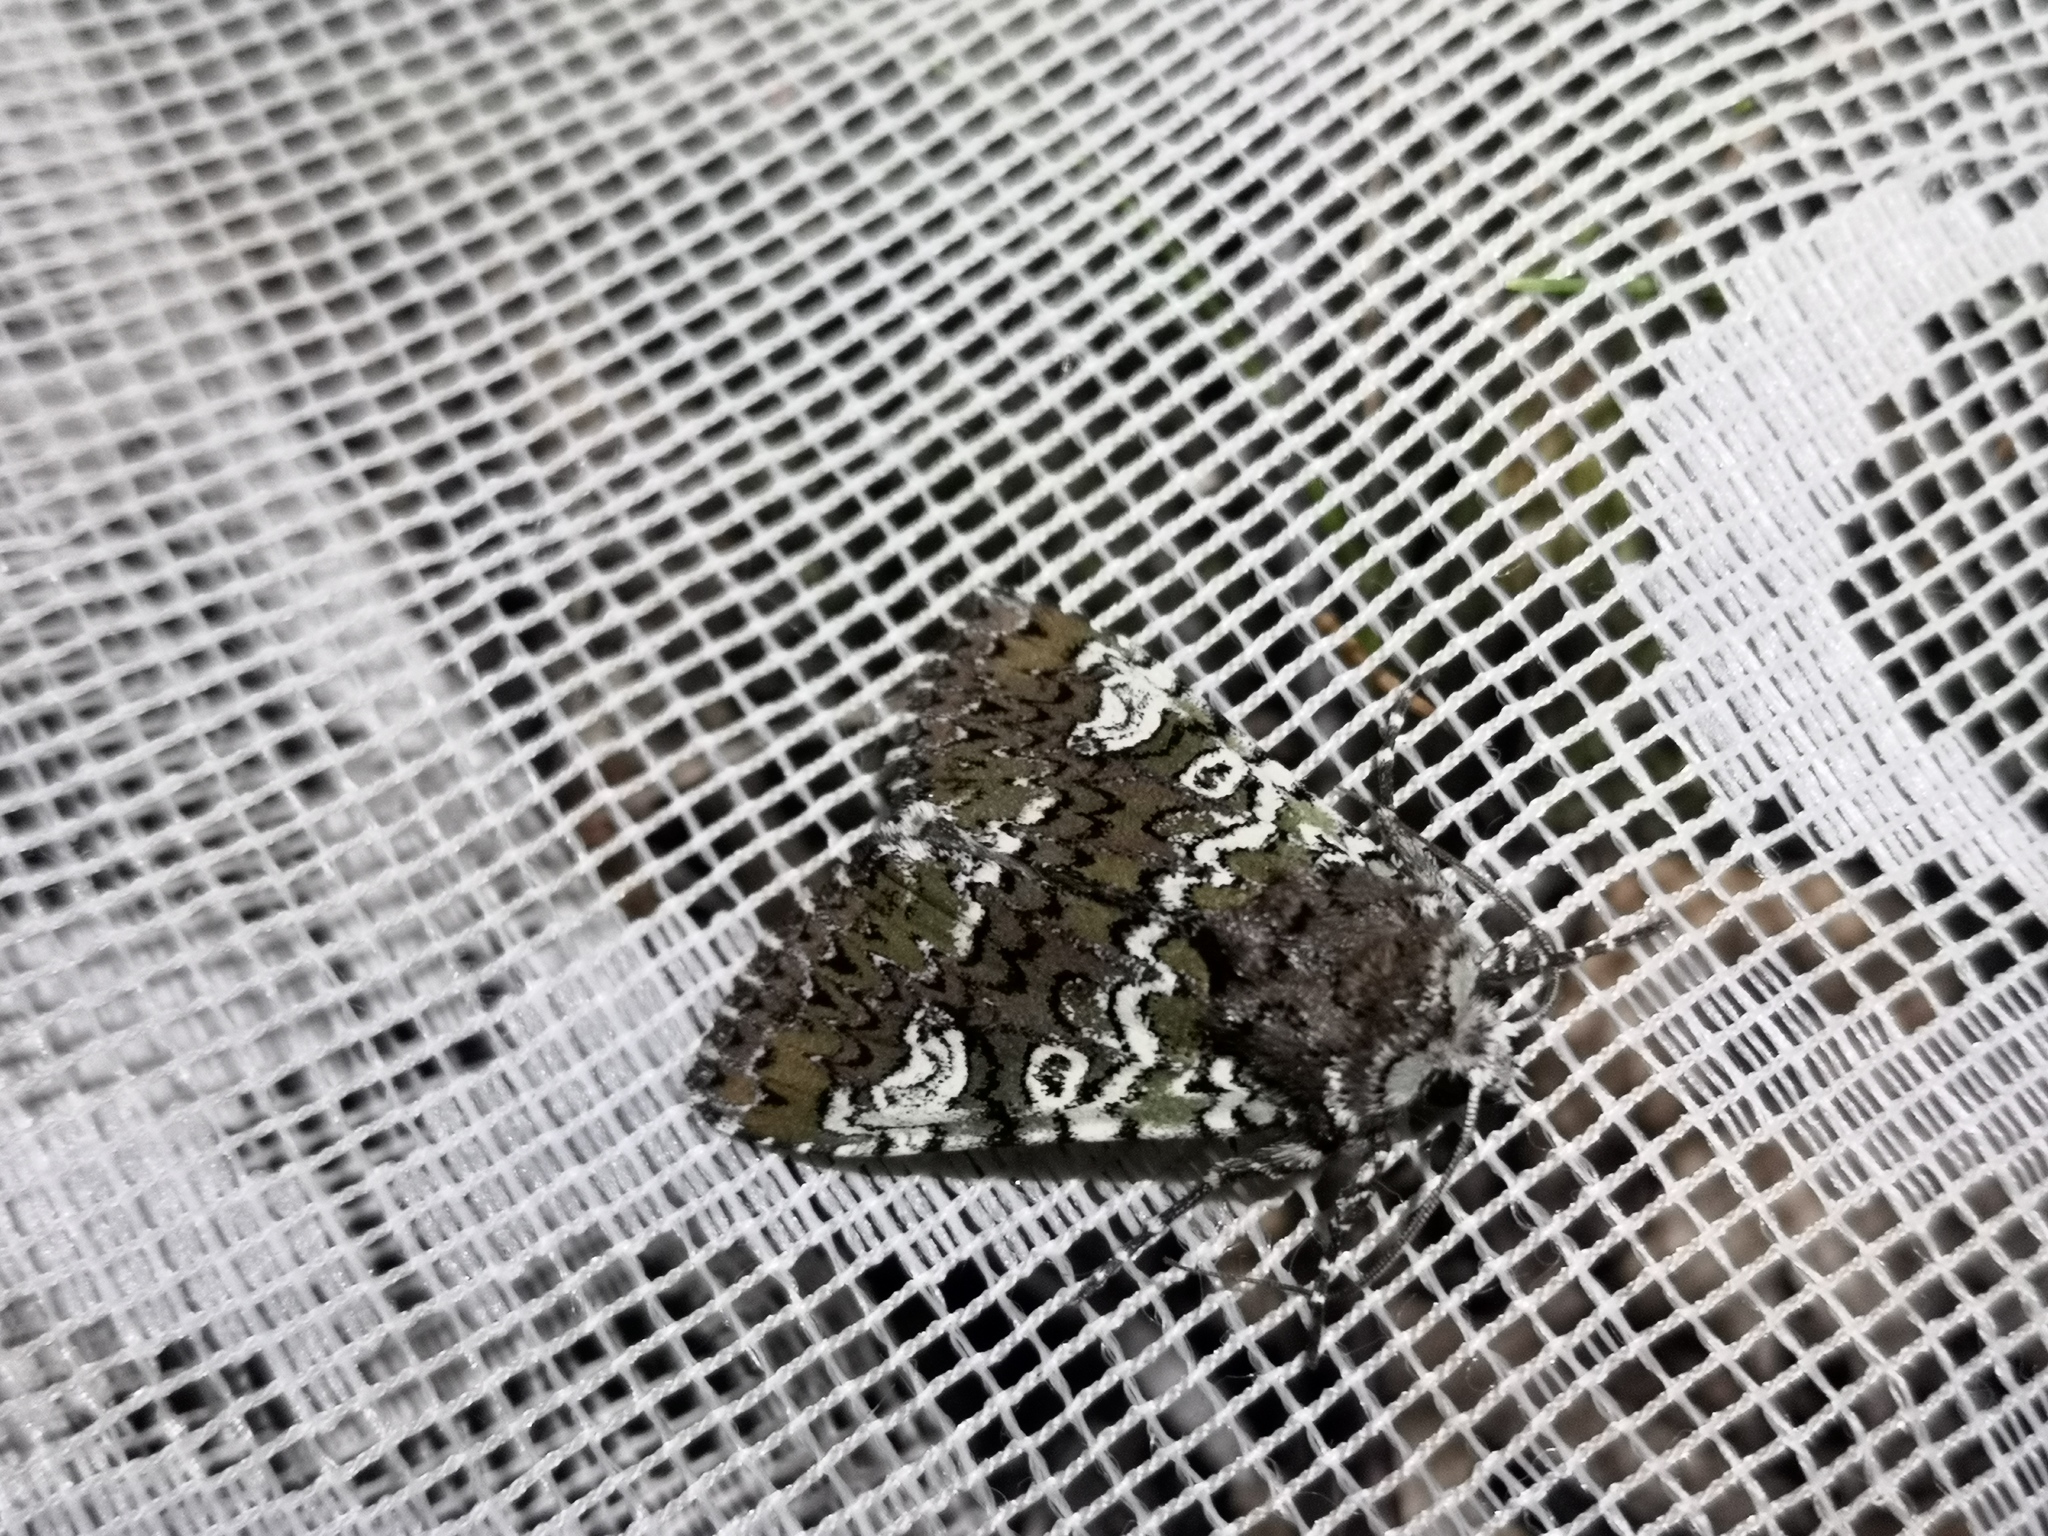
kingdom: Animalia
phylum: Arthropoda
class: Insecta
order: Lepidoptera
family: Noctuidae
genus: Crypsedra
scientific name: Crypsedra gemmea
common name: Cameo
